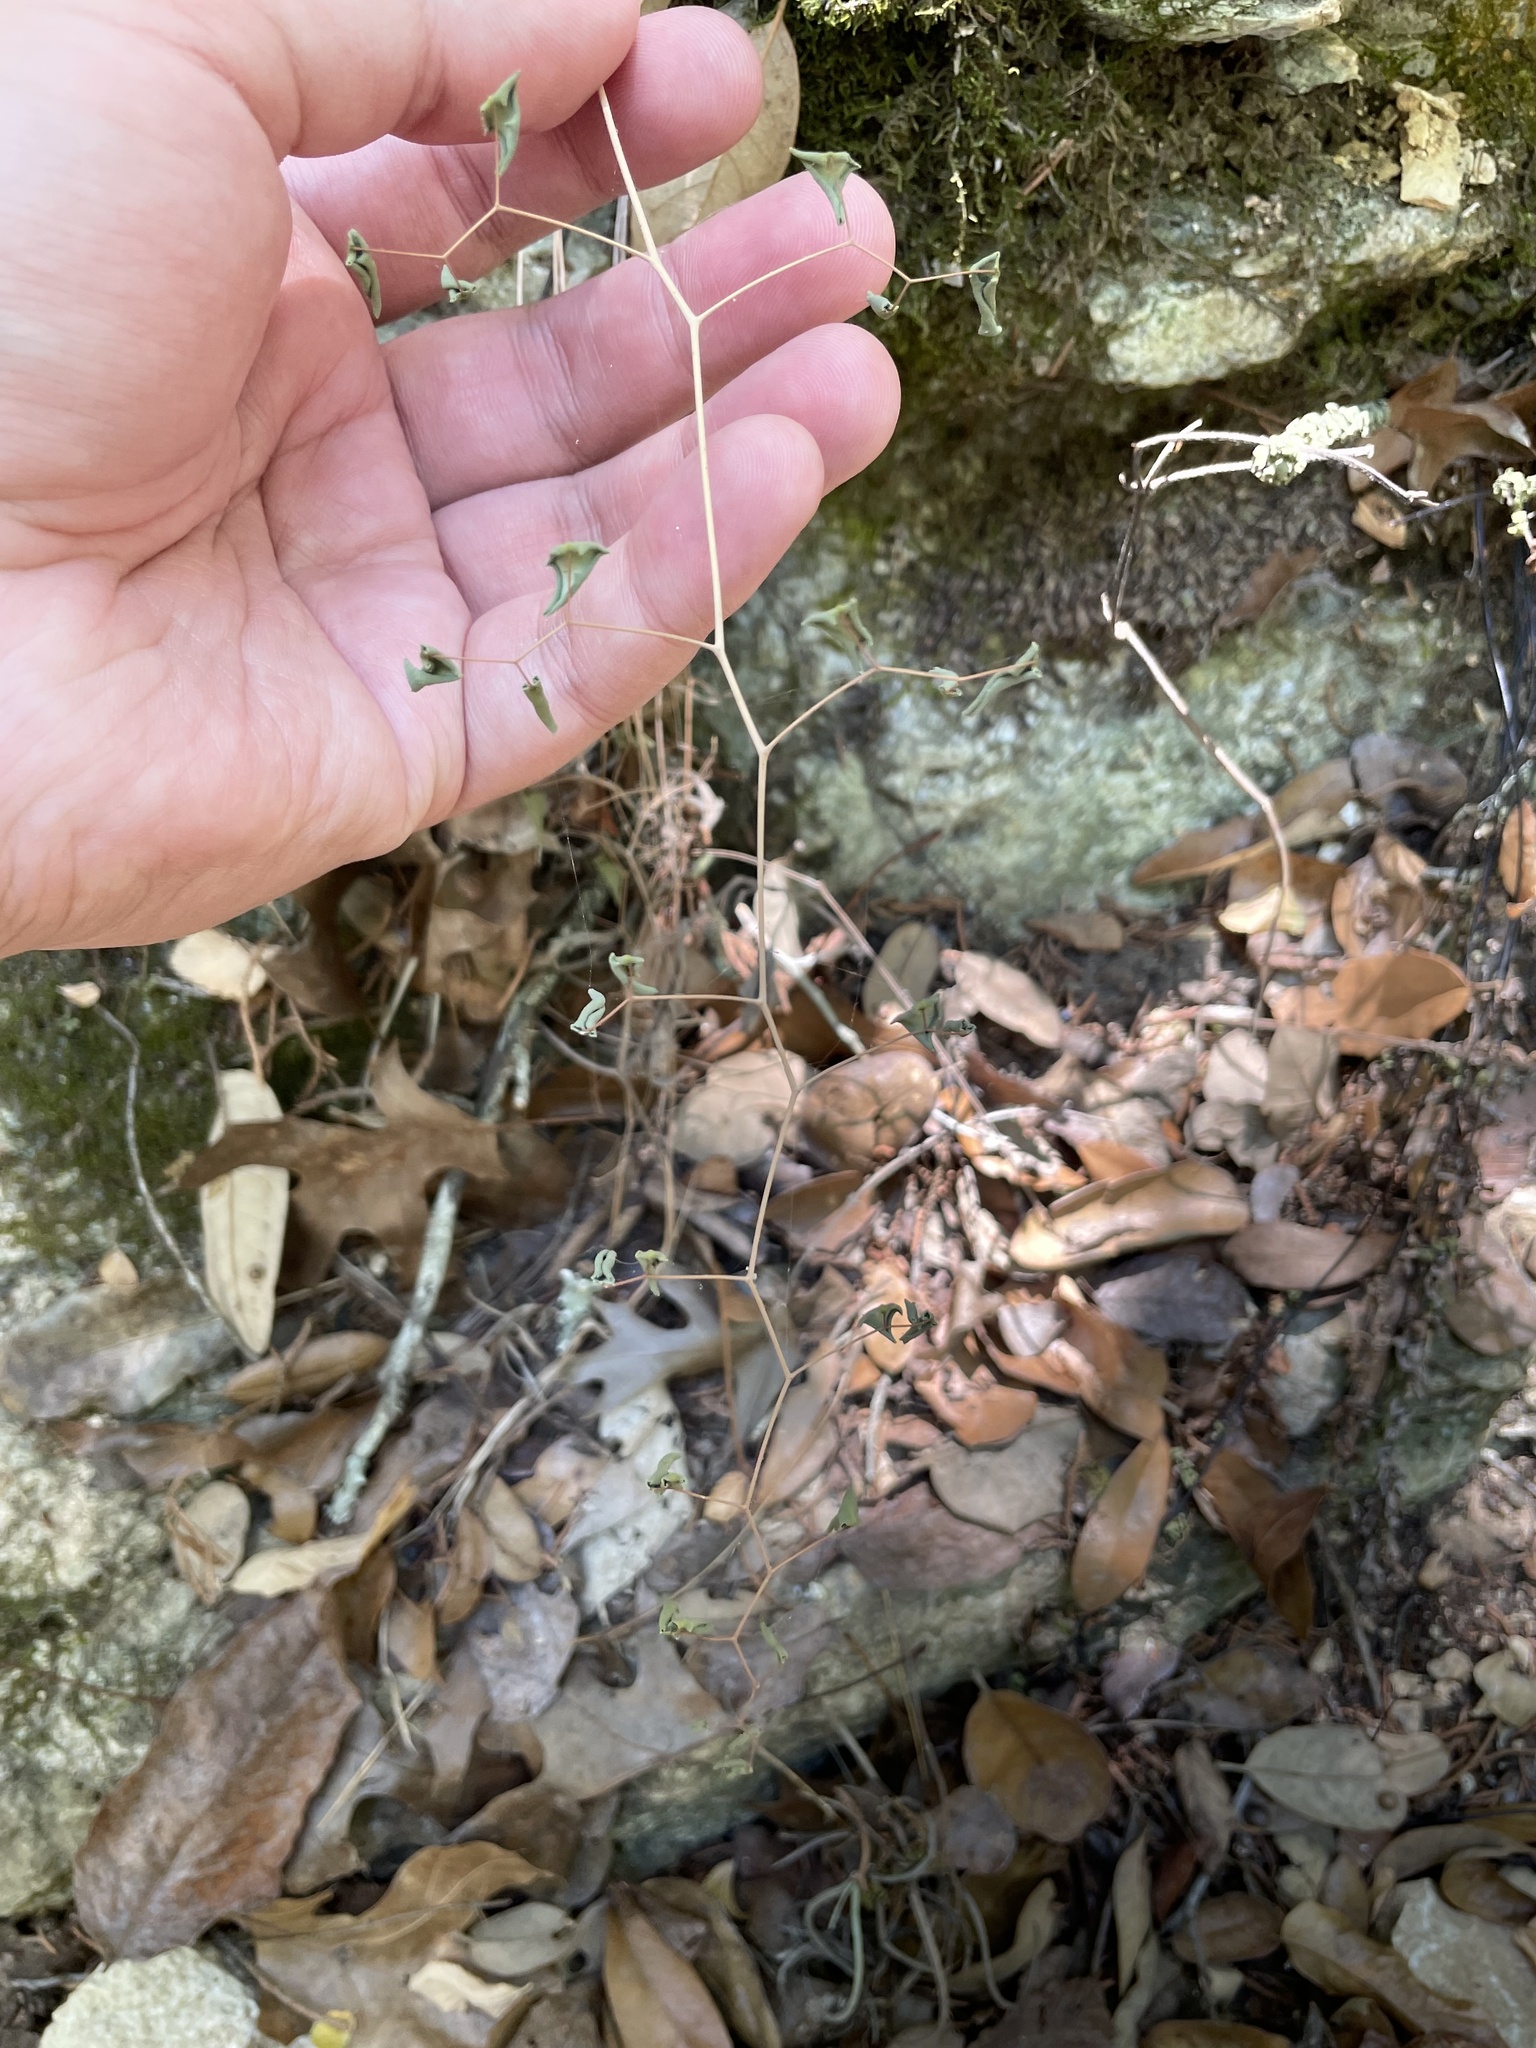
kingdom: Plantae
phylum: Tracheophyta
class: Polypodiopsida
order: Polypodiales
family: Pteridaceae
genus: Pellaea
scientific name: Pellaea ovata
